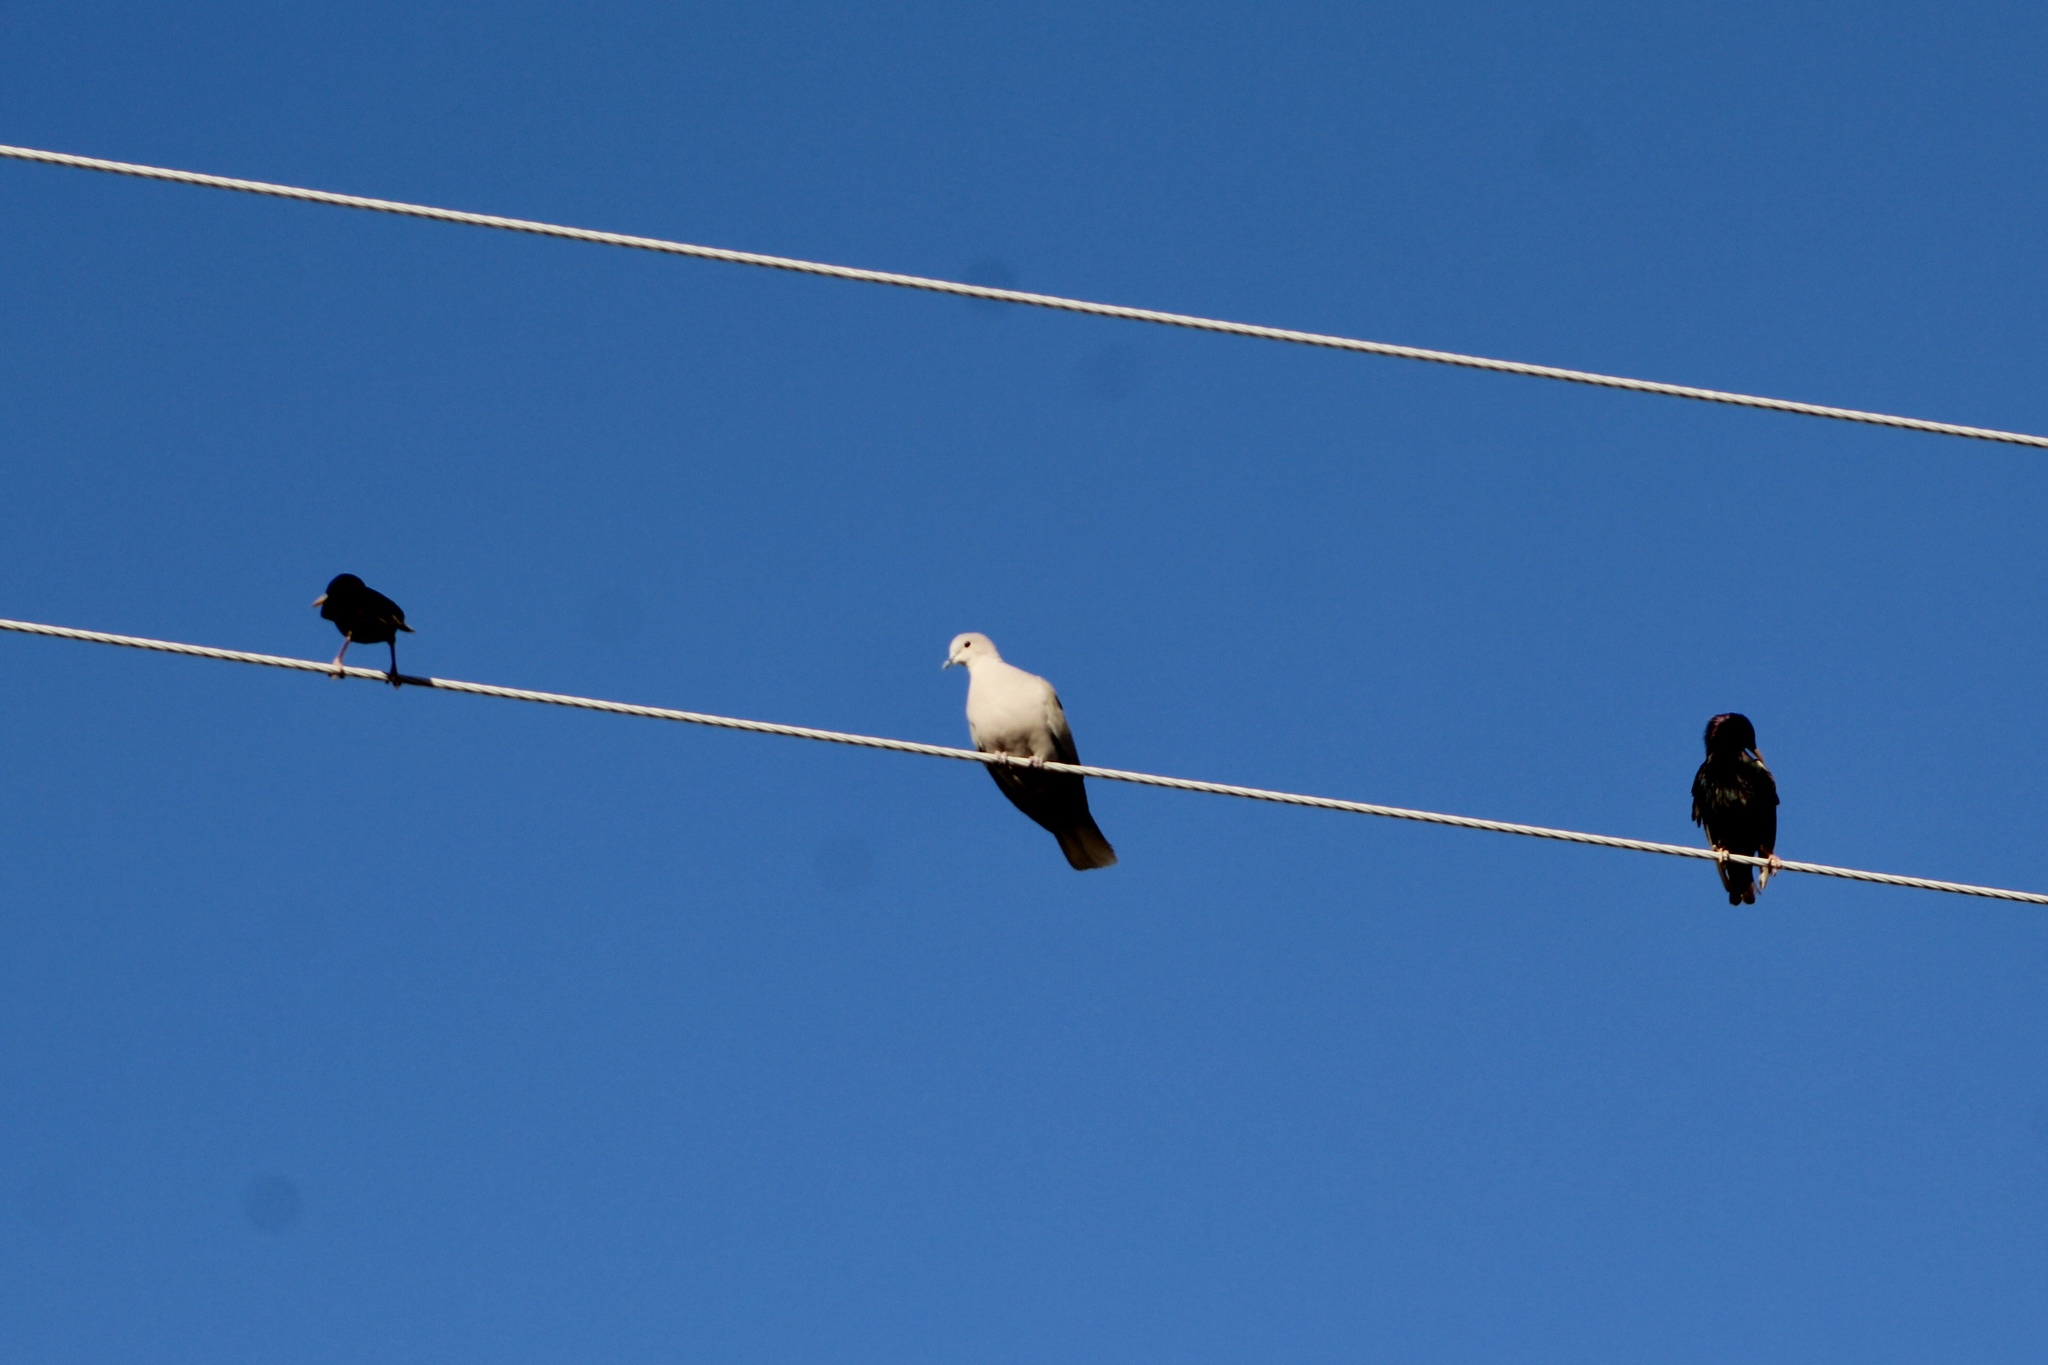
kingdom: Animalia
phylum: Chordata
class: Aves
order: Passeriformes
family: Sturnidae
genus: Sturnus
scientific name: Sturnus vulgaris
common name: Common starling
